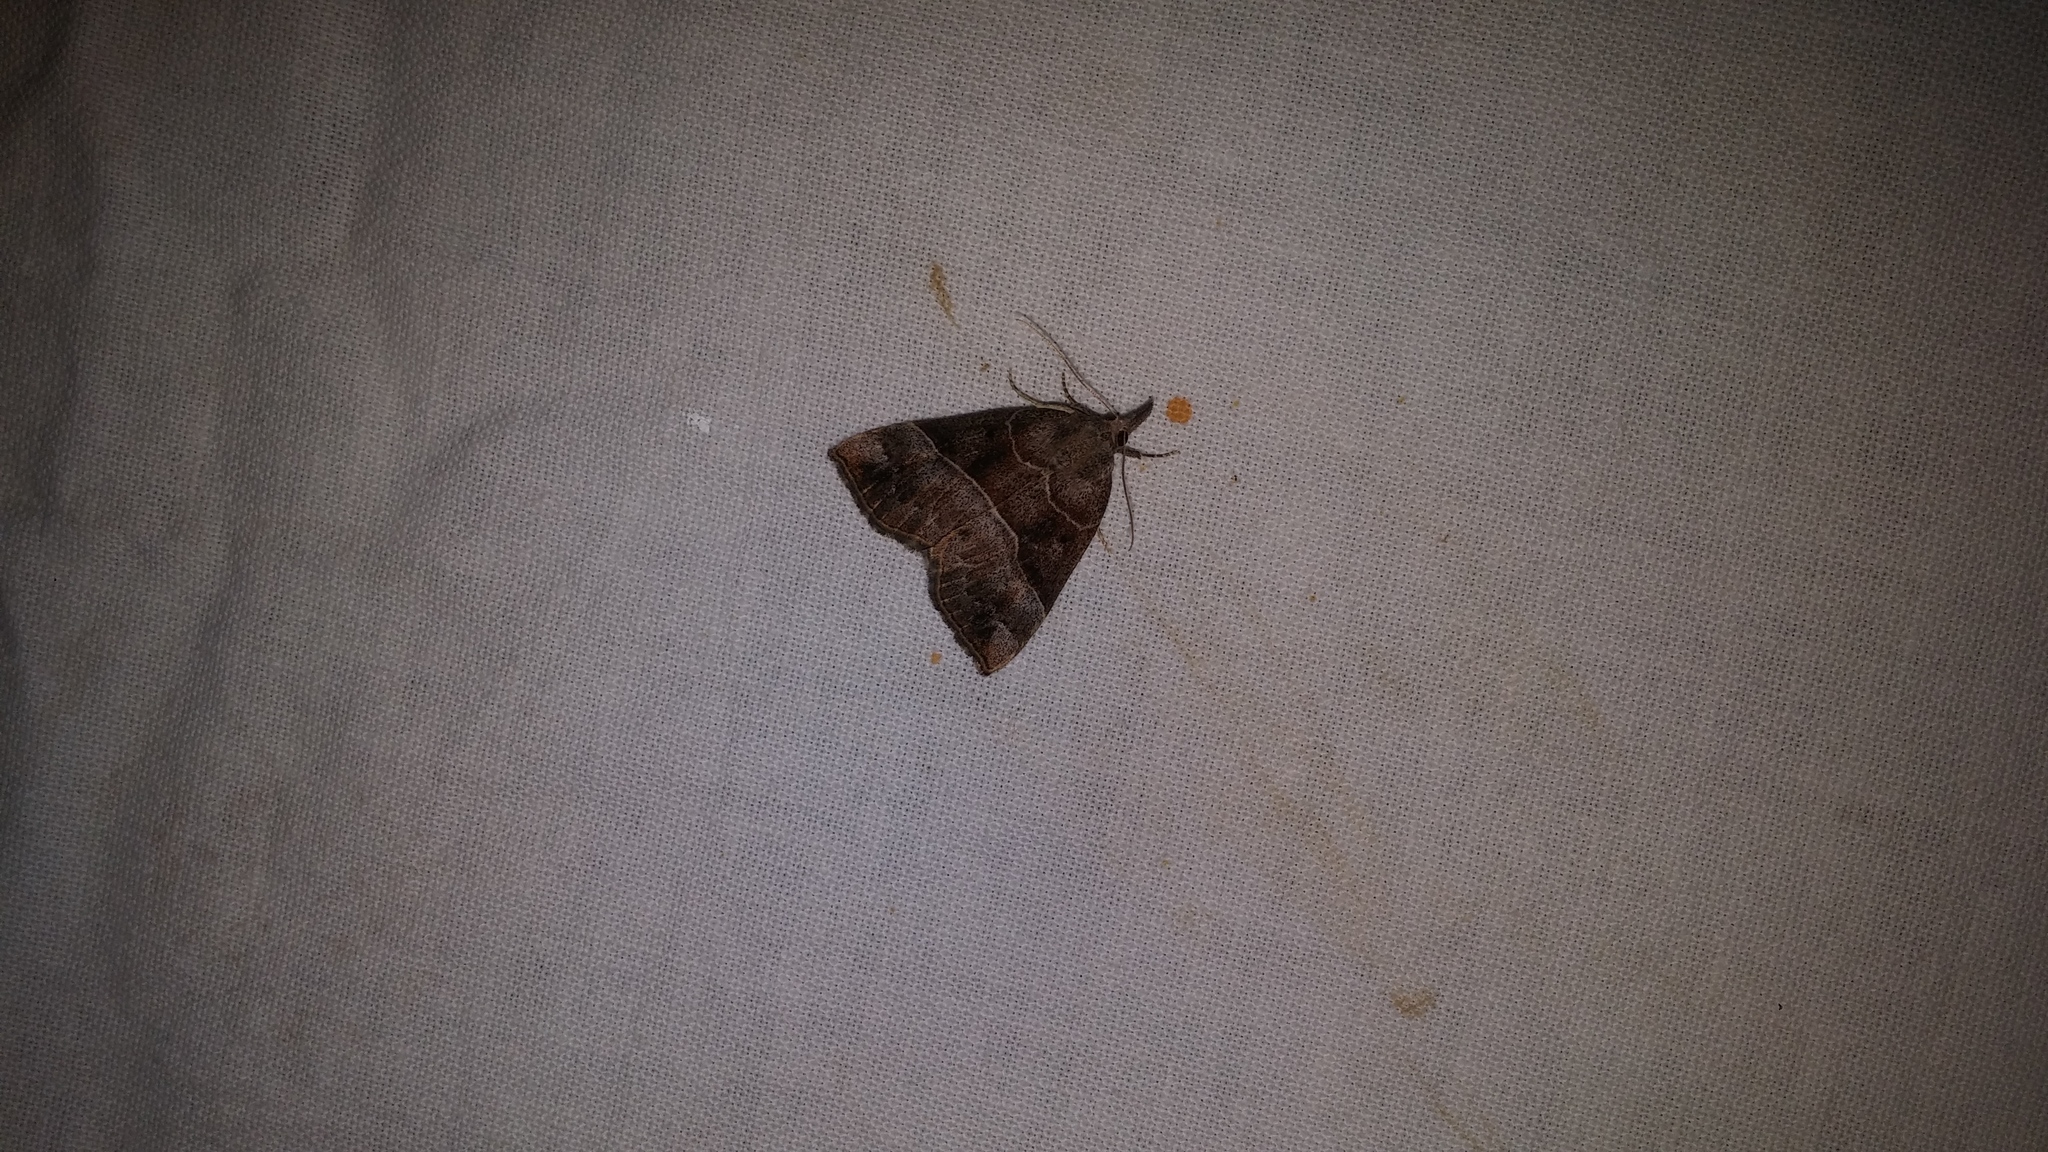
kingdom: Animalia
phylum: Arthropoda
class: Insecta
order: Lepidoptera
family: Erebidae
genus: Hypena
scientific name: Hypena deceptalis
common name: Deceptive snout
